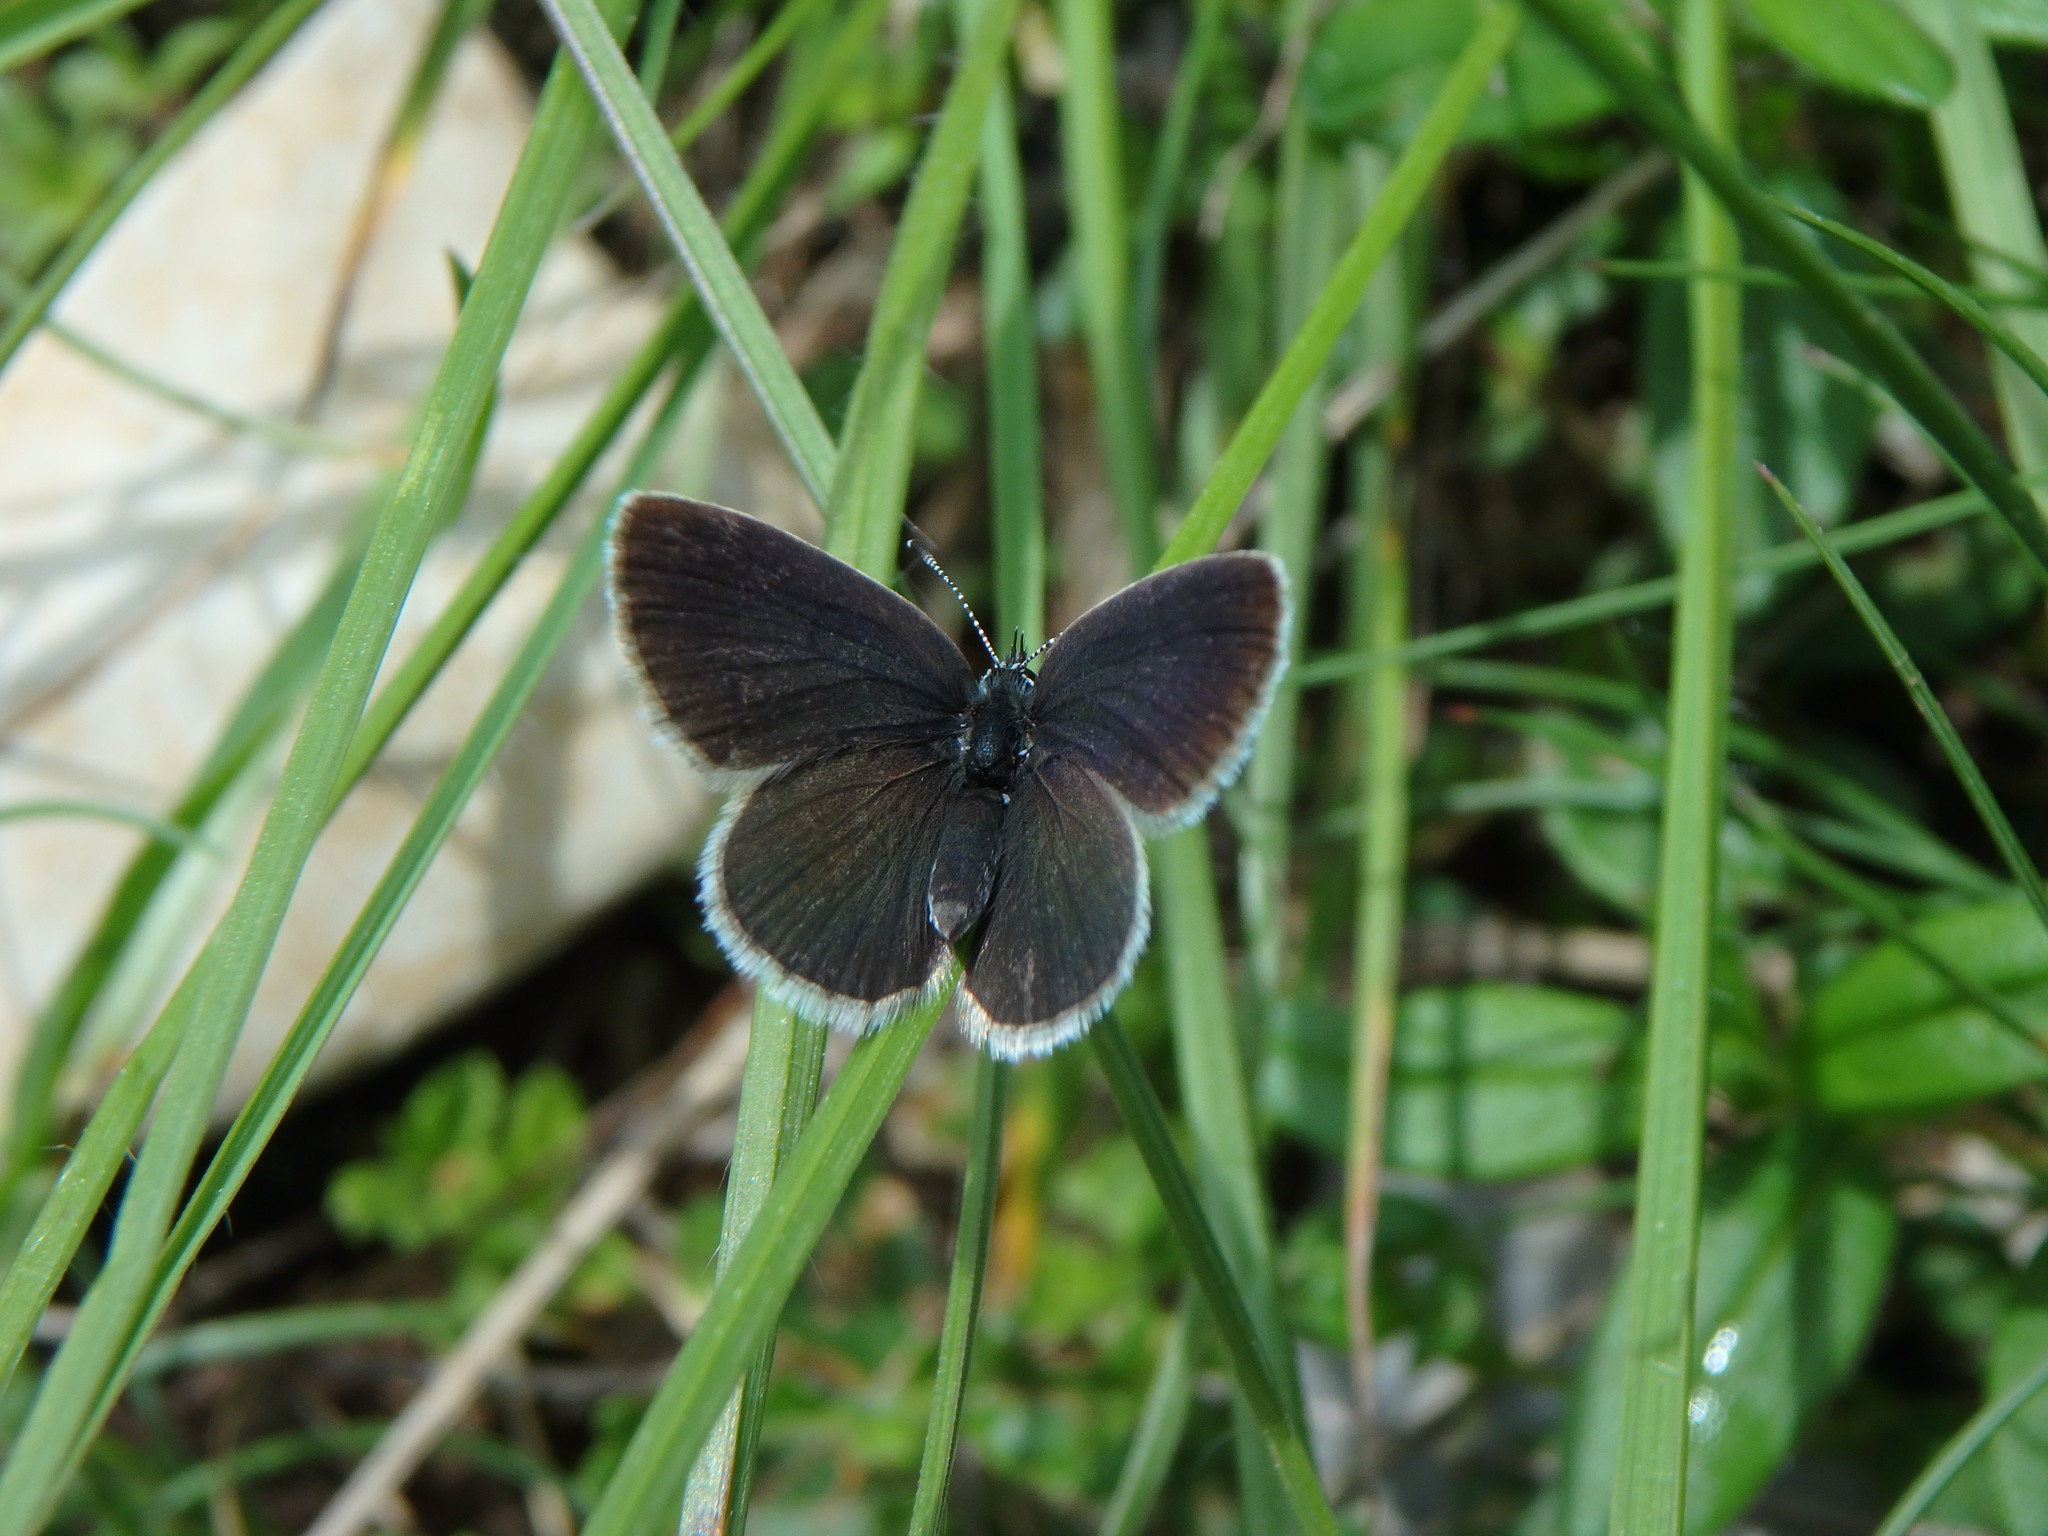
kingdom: Animalia
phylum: Arthropoda
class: Insecta
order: Lepidoptera
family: Lycaenidae
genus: Cupido
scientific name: Cupido minimus
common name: Small blue
